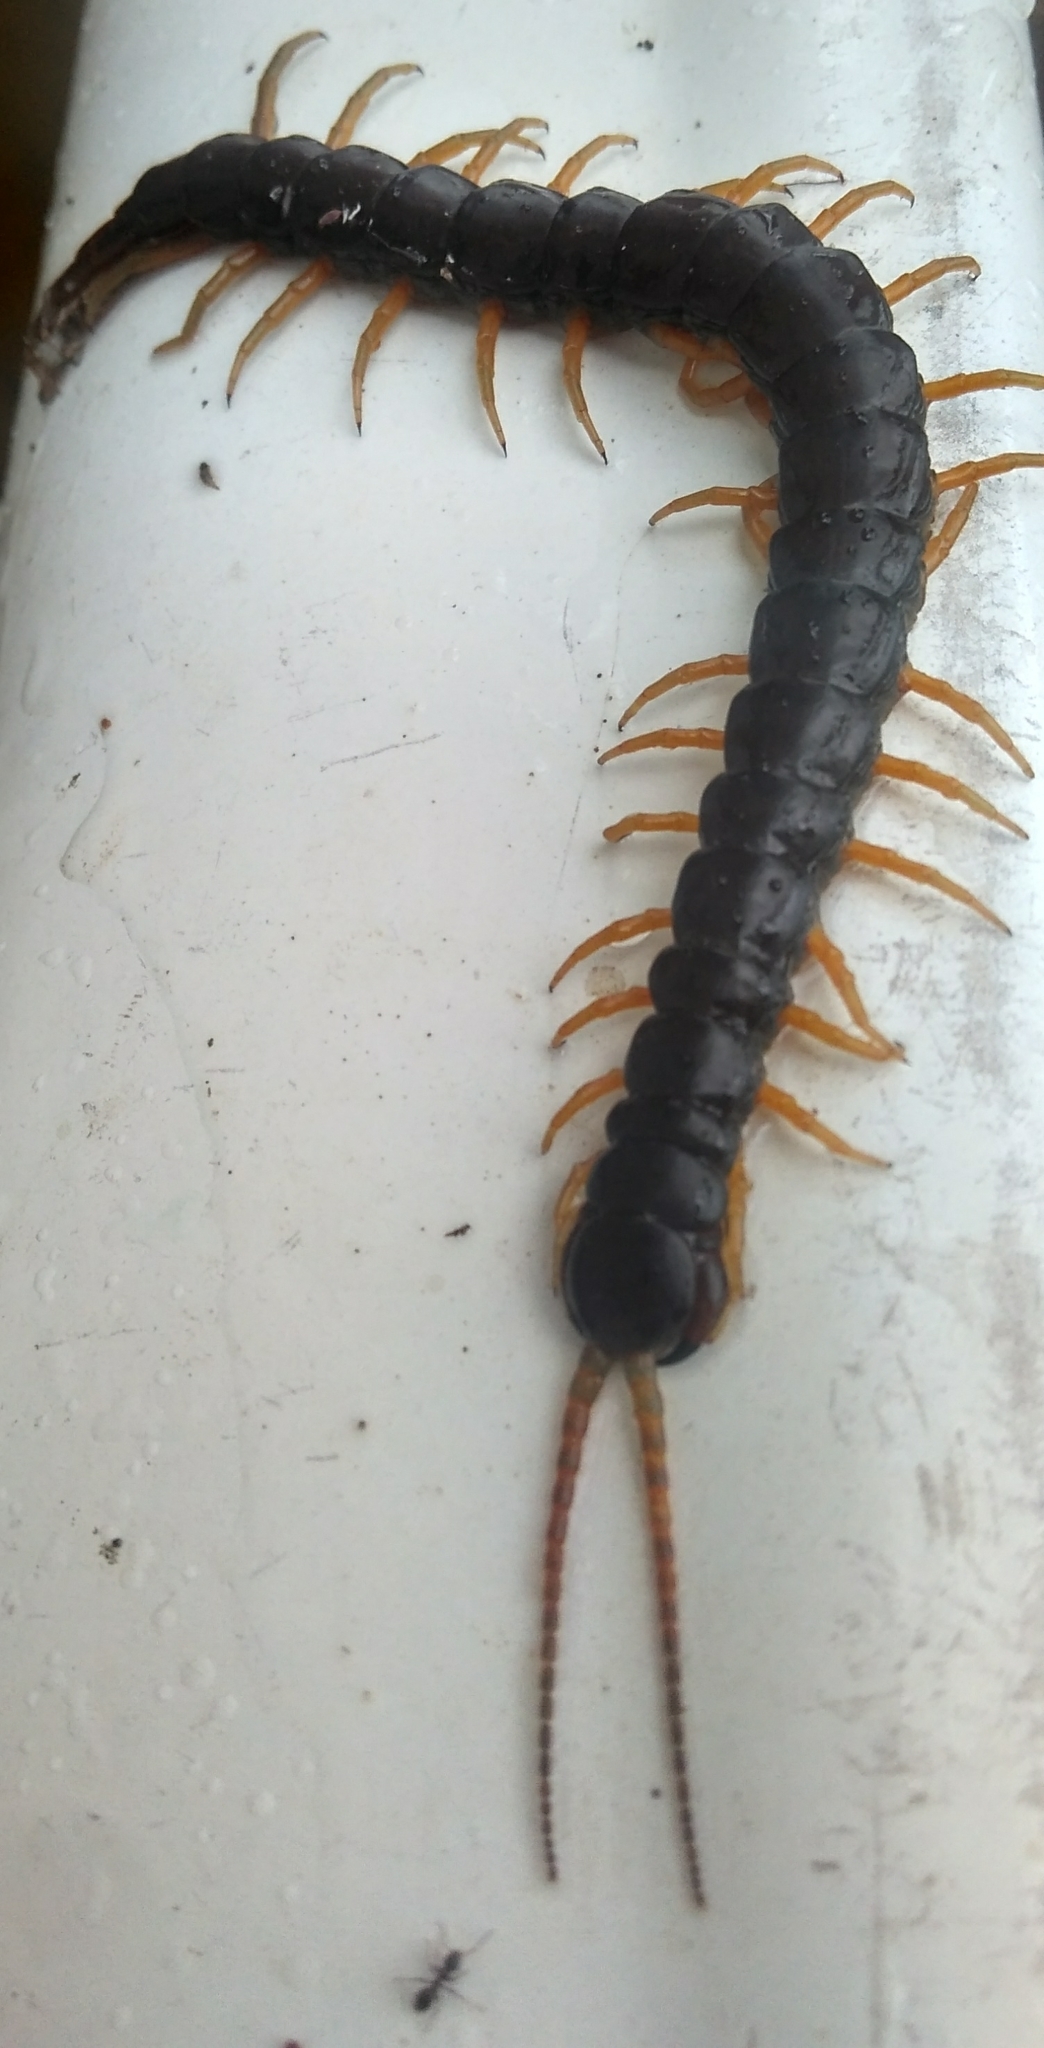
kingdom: Animalia
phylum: Arthropoda
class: Chilopoda
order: Scolopendromorpha
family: Scolopendridae
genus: Scolopendra
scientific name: Scolopendra cingulata
